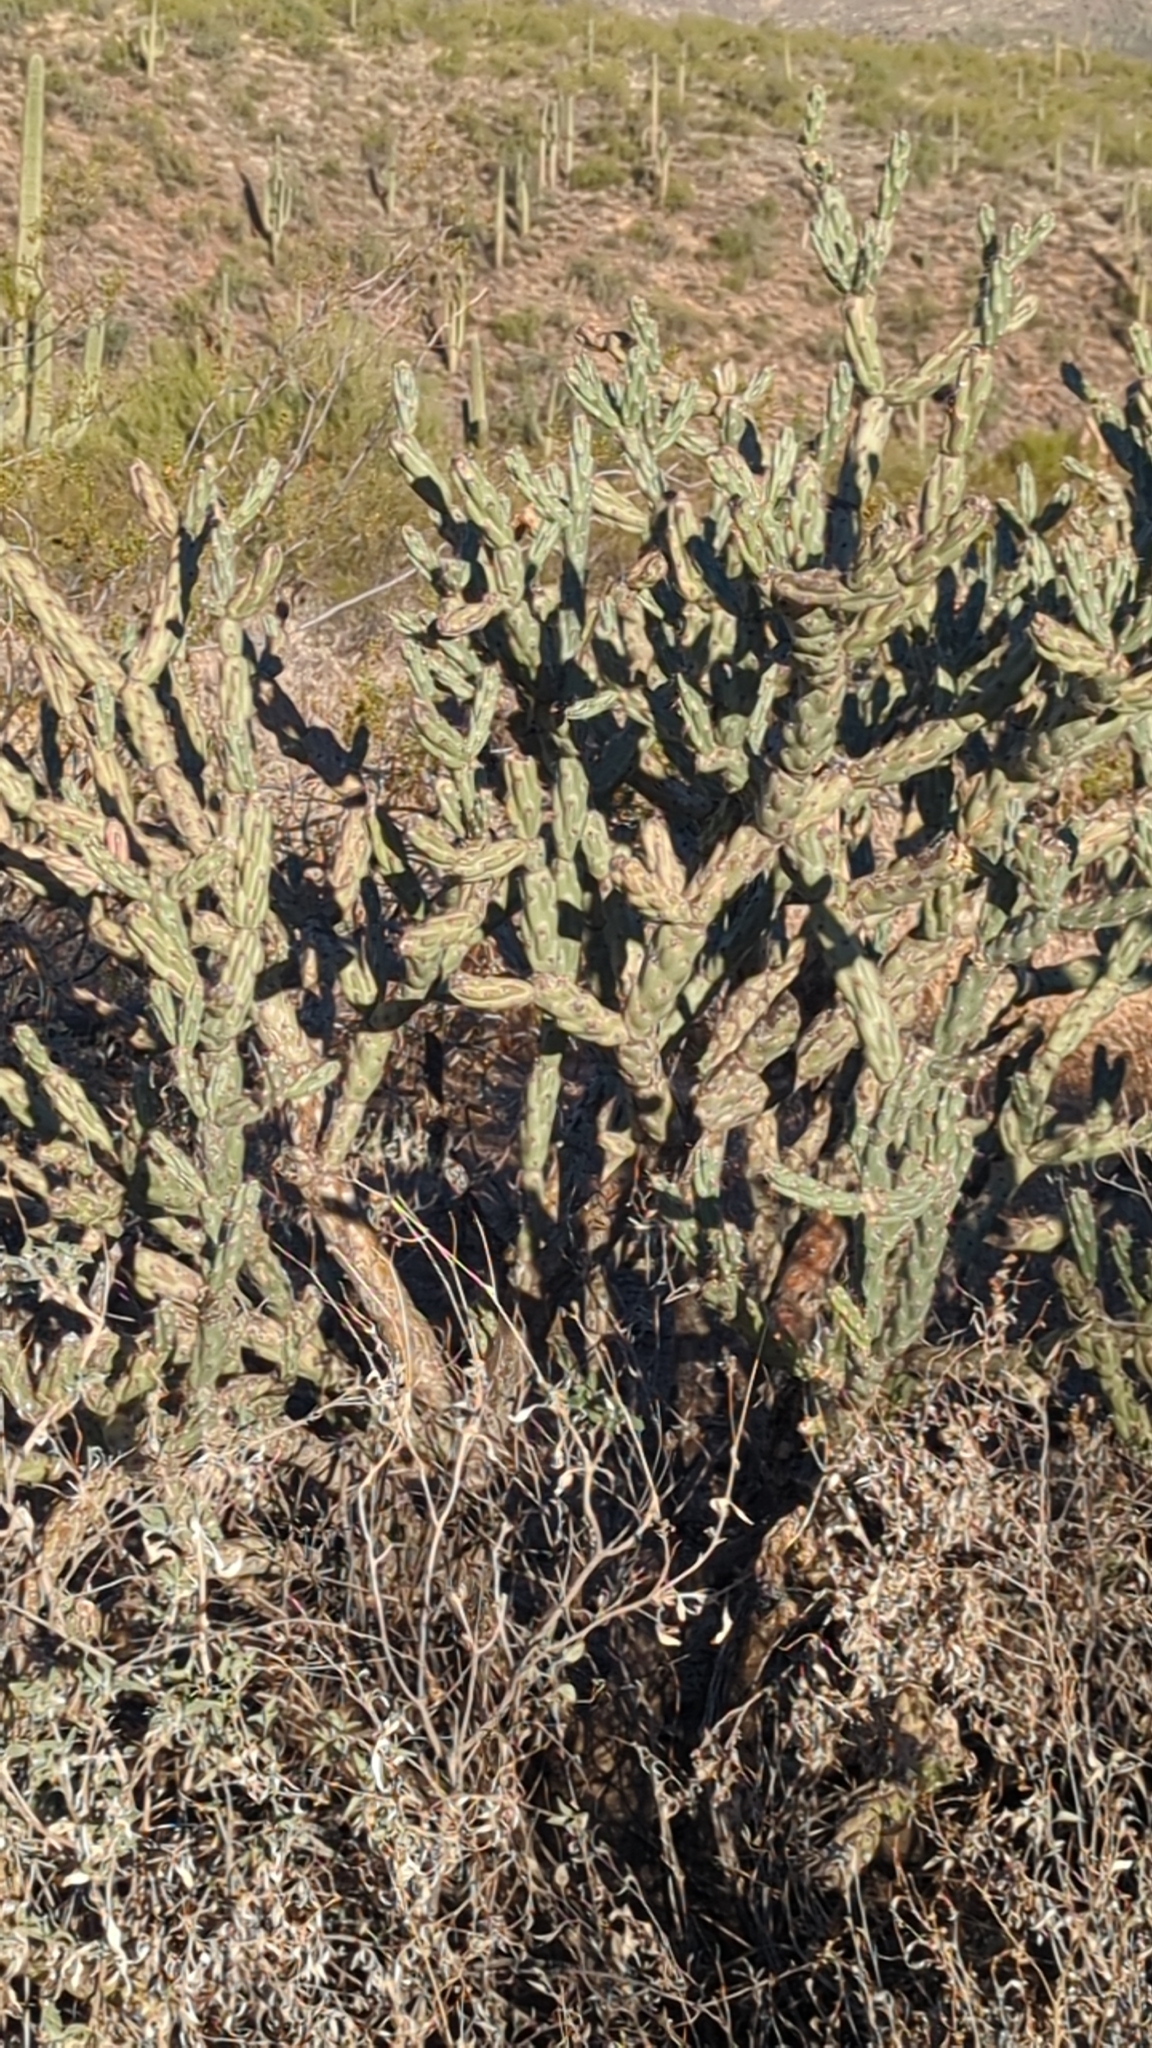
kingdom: Plantae
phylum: Tracheophyta
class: Magnoliopsida
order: Caryophyllales
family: Cactaceae
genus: Cylindropuntia
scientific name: Cylindropuntia acanthocarpa
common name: Buckhorn cholla
